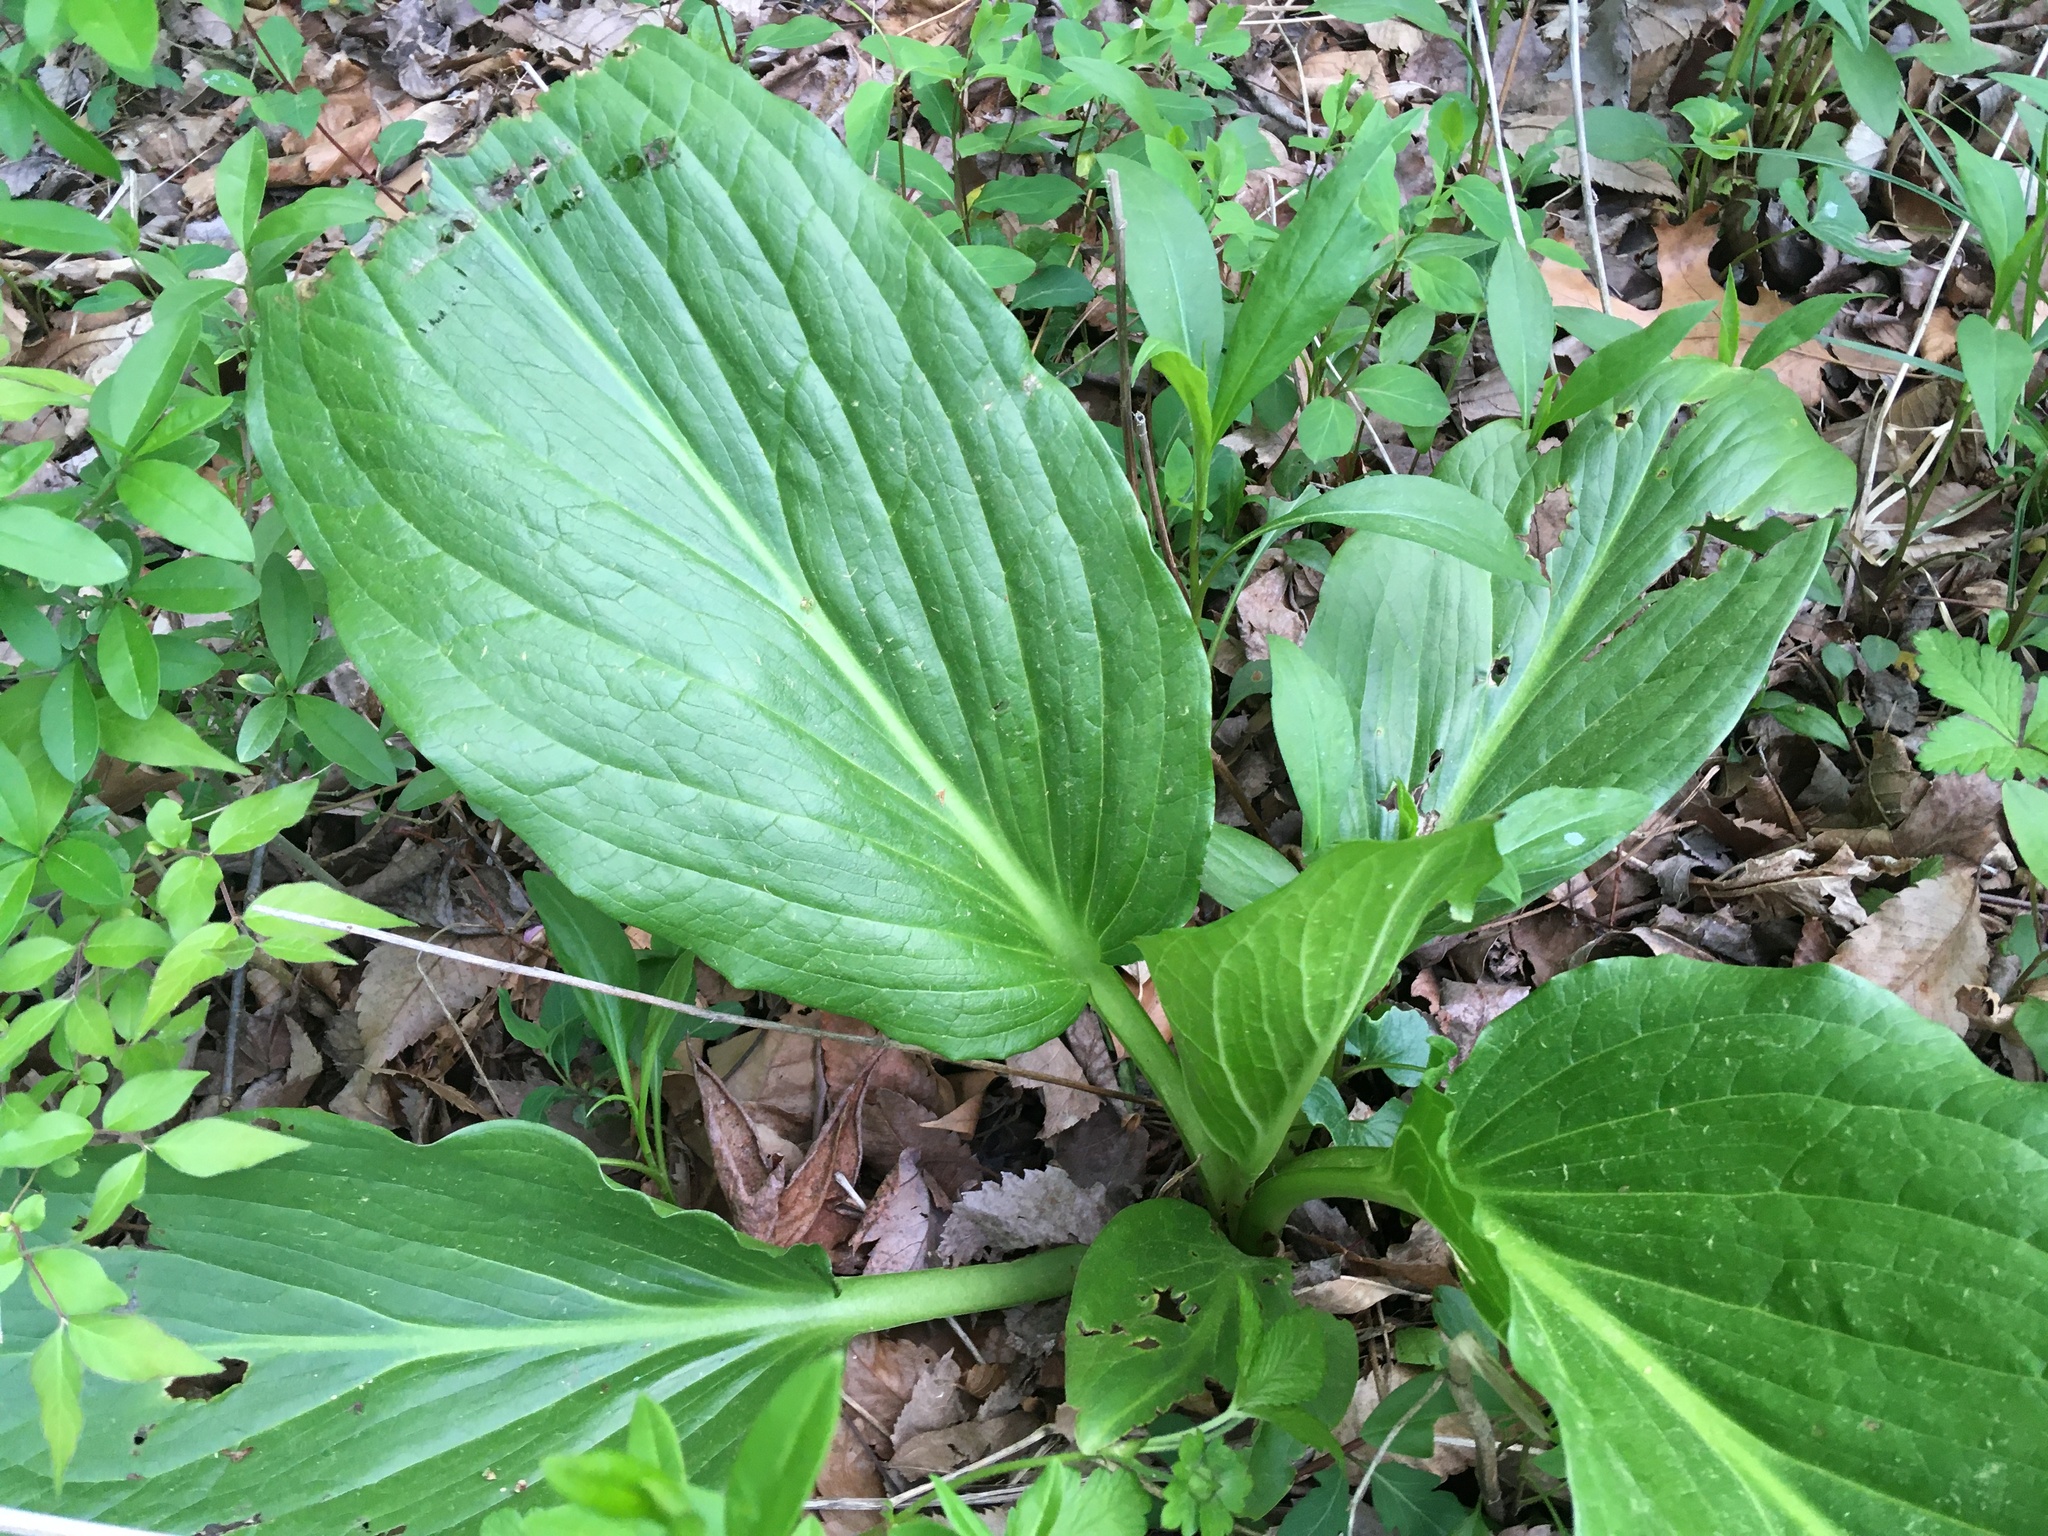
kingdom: Plantae
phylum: Tracheophyta
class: Liliopsida
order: Alismatales
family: Araceae
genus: Symplocarpus
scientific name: Symplocarpus foetidus
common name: Eastern skunk cabbage
